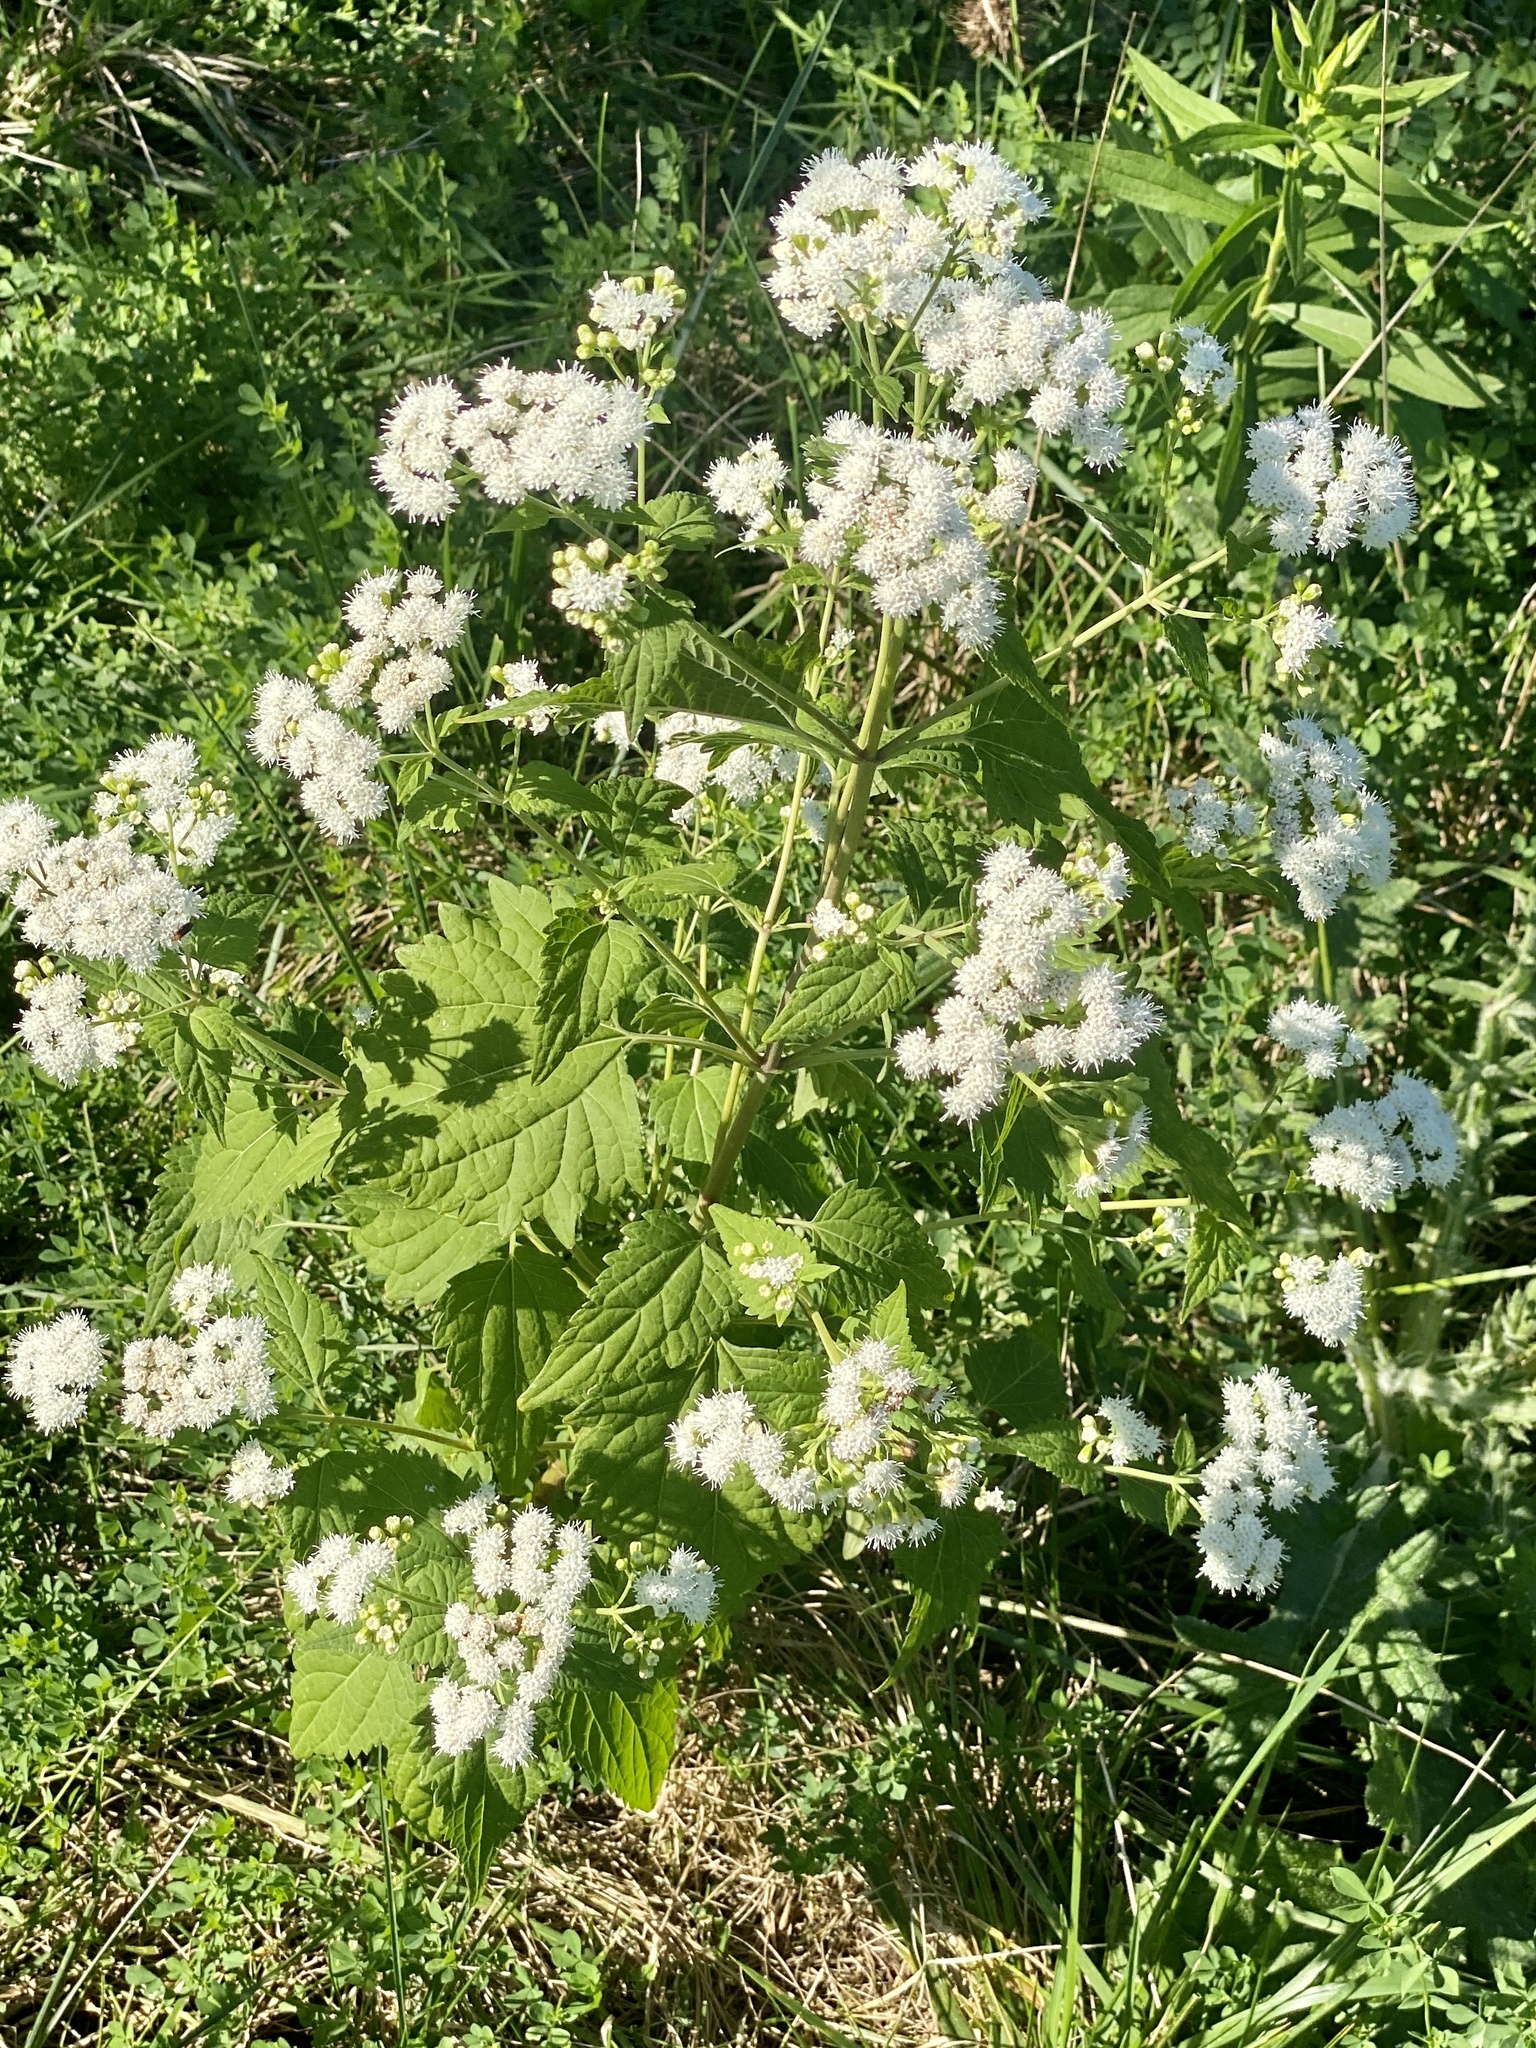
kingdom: Plantae
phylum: Tracheophyta
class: Magnoliopsida
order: Asterales
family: Asteraceae
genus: Ageratina
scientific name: Ageratina altissima
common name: White snakeroot
